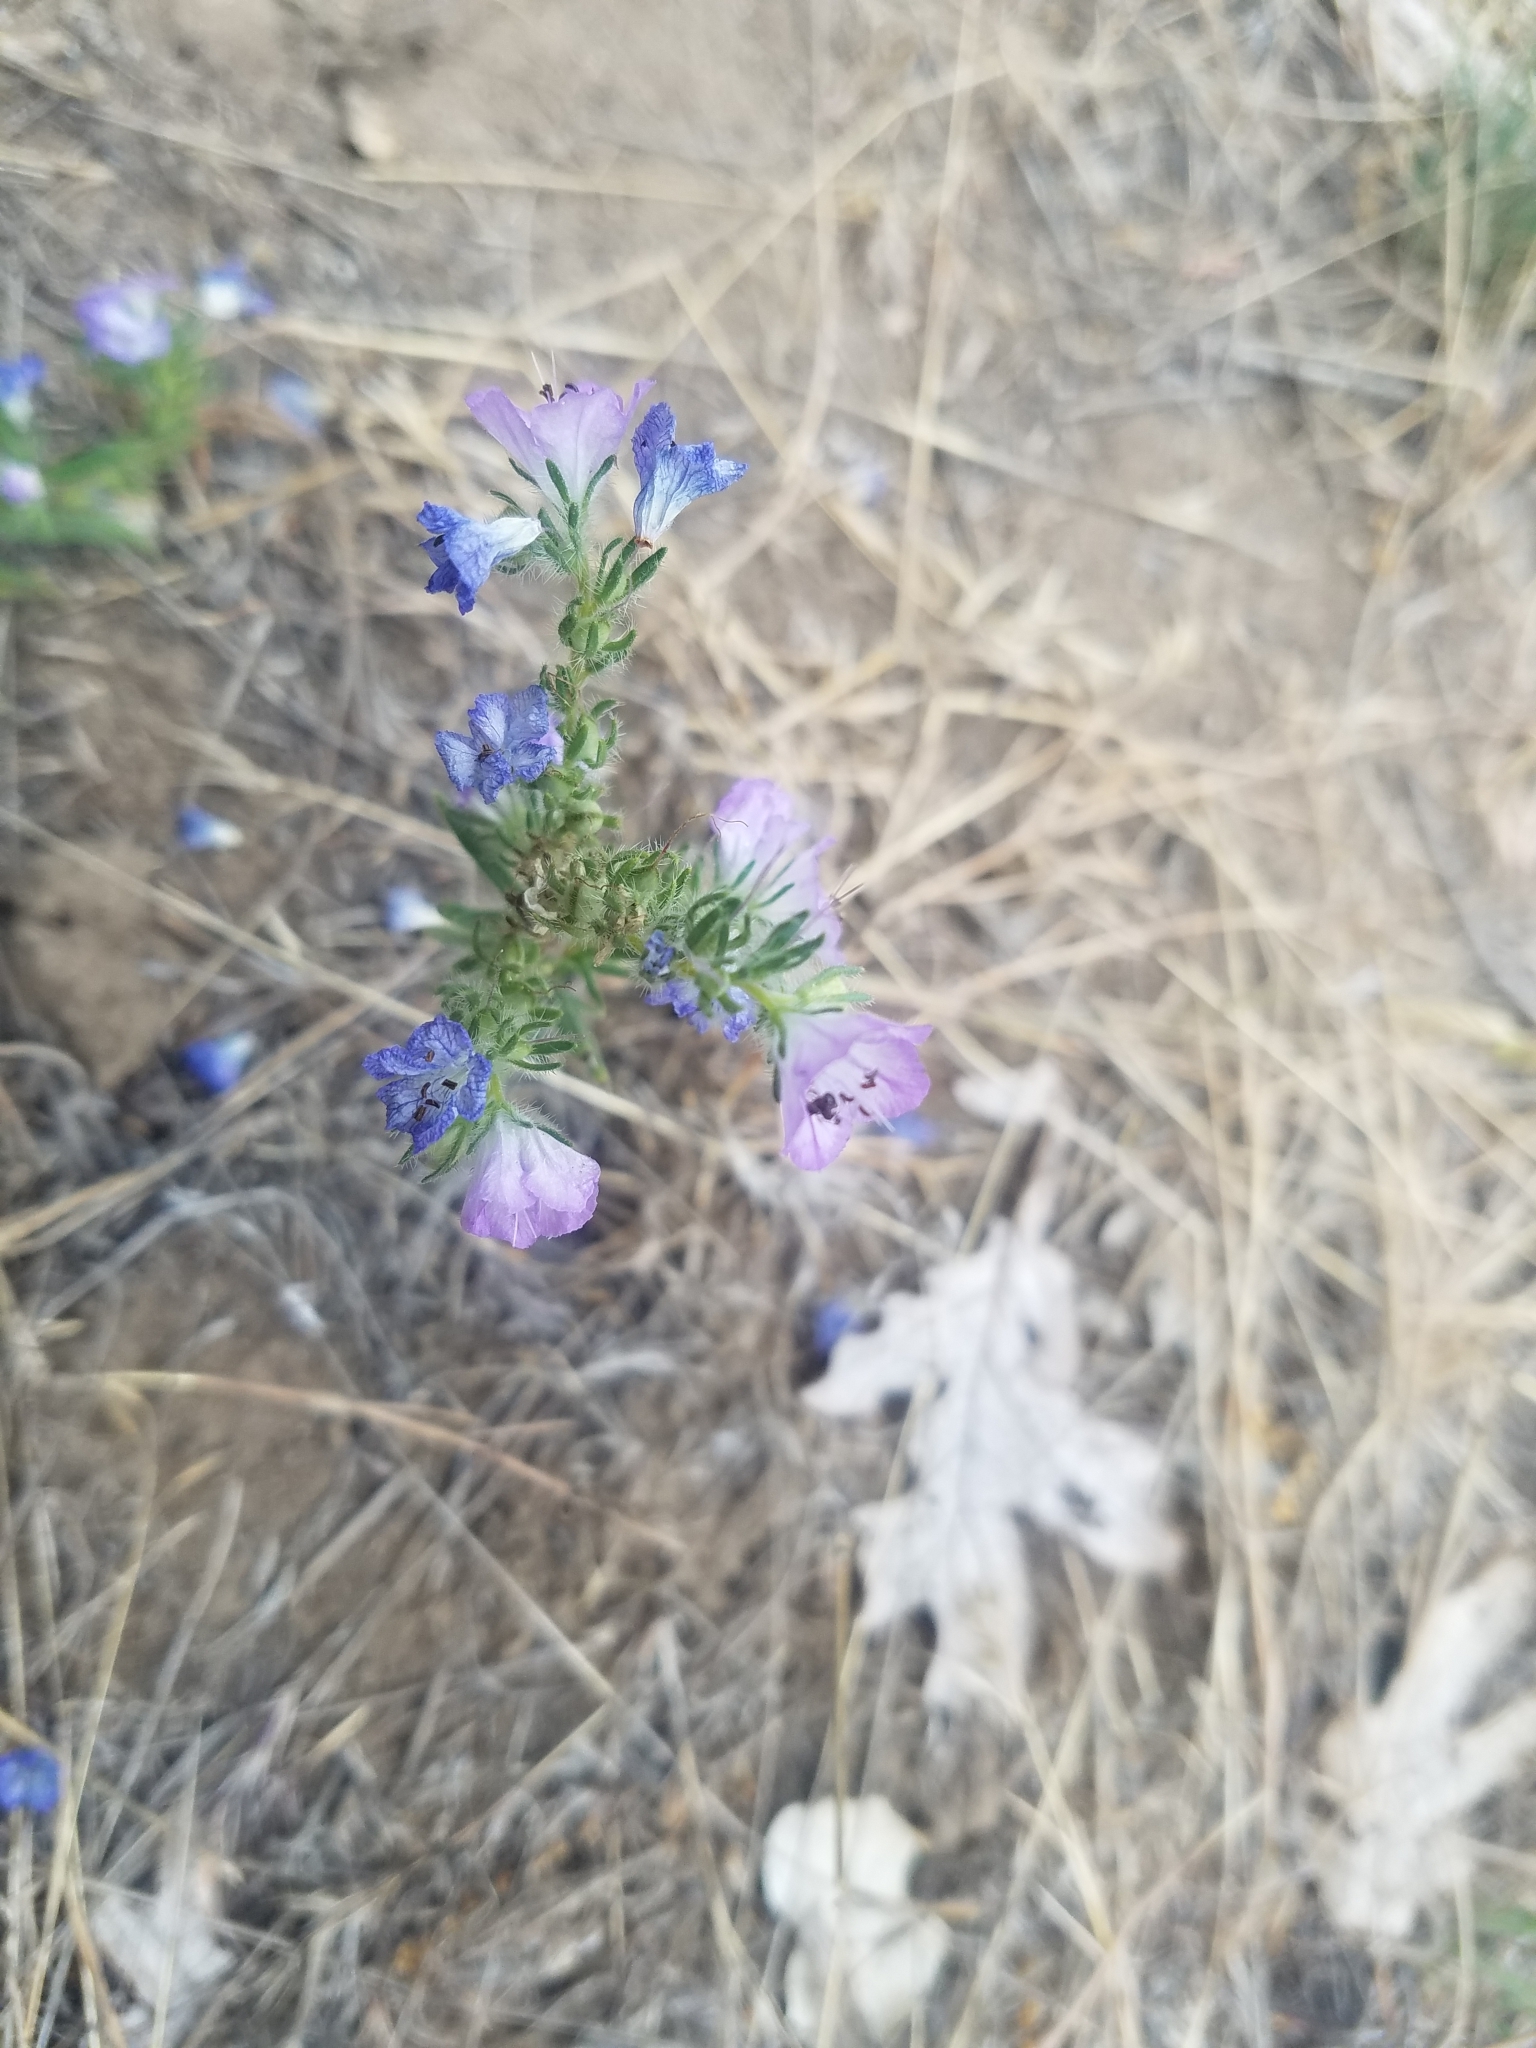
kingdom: Plantae
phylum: Tracheophyta
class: Magnoliopsida
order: Boraginales
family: Hydrophyllaceae
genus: Phacelia
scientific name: Phacelia linearis
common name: Linear-leaved phacelia
